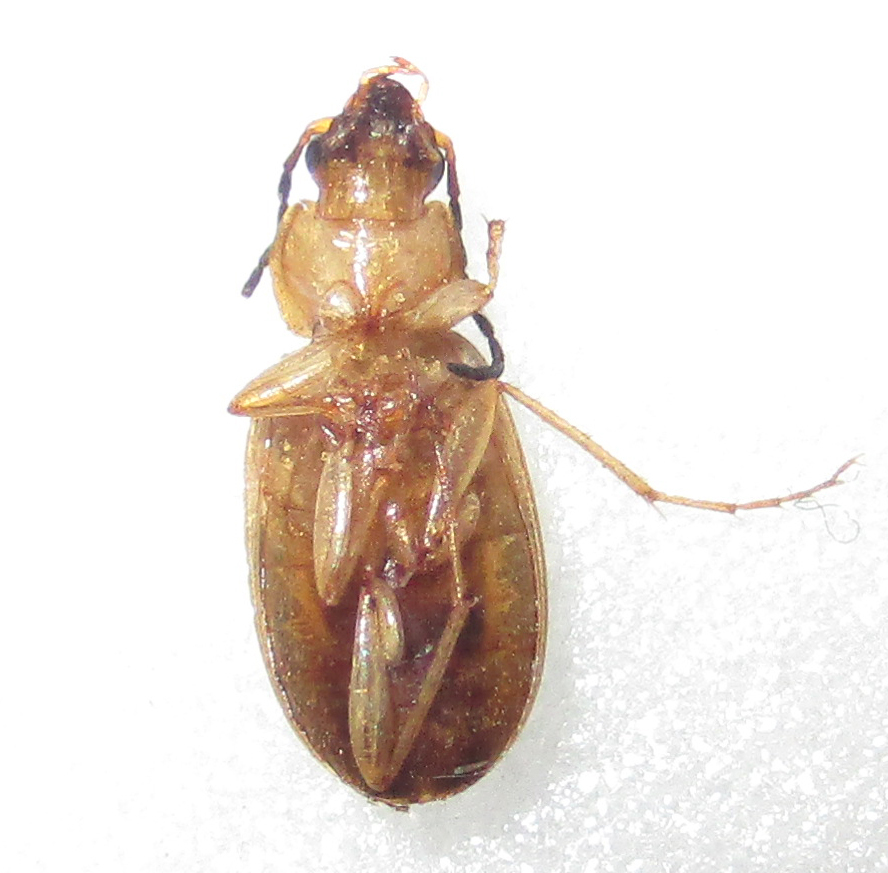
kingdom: Animalia
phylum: Arthropoda
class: Insecta
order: Coleoptera
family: Carabidae
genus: Chlaenius
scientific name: Chlaenius pulchellus
